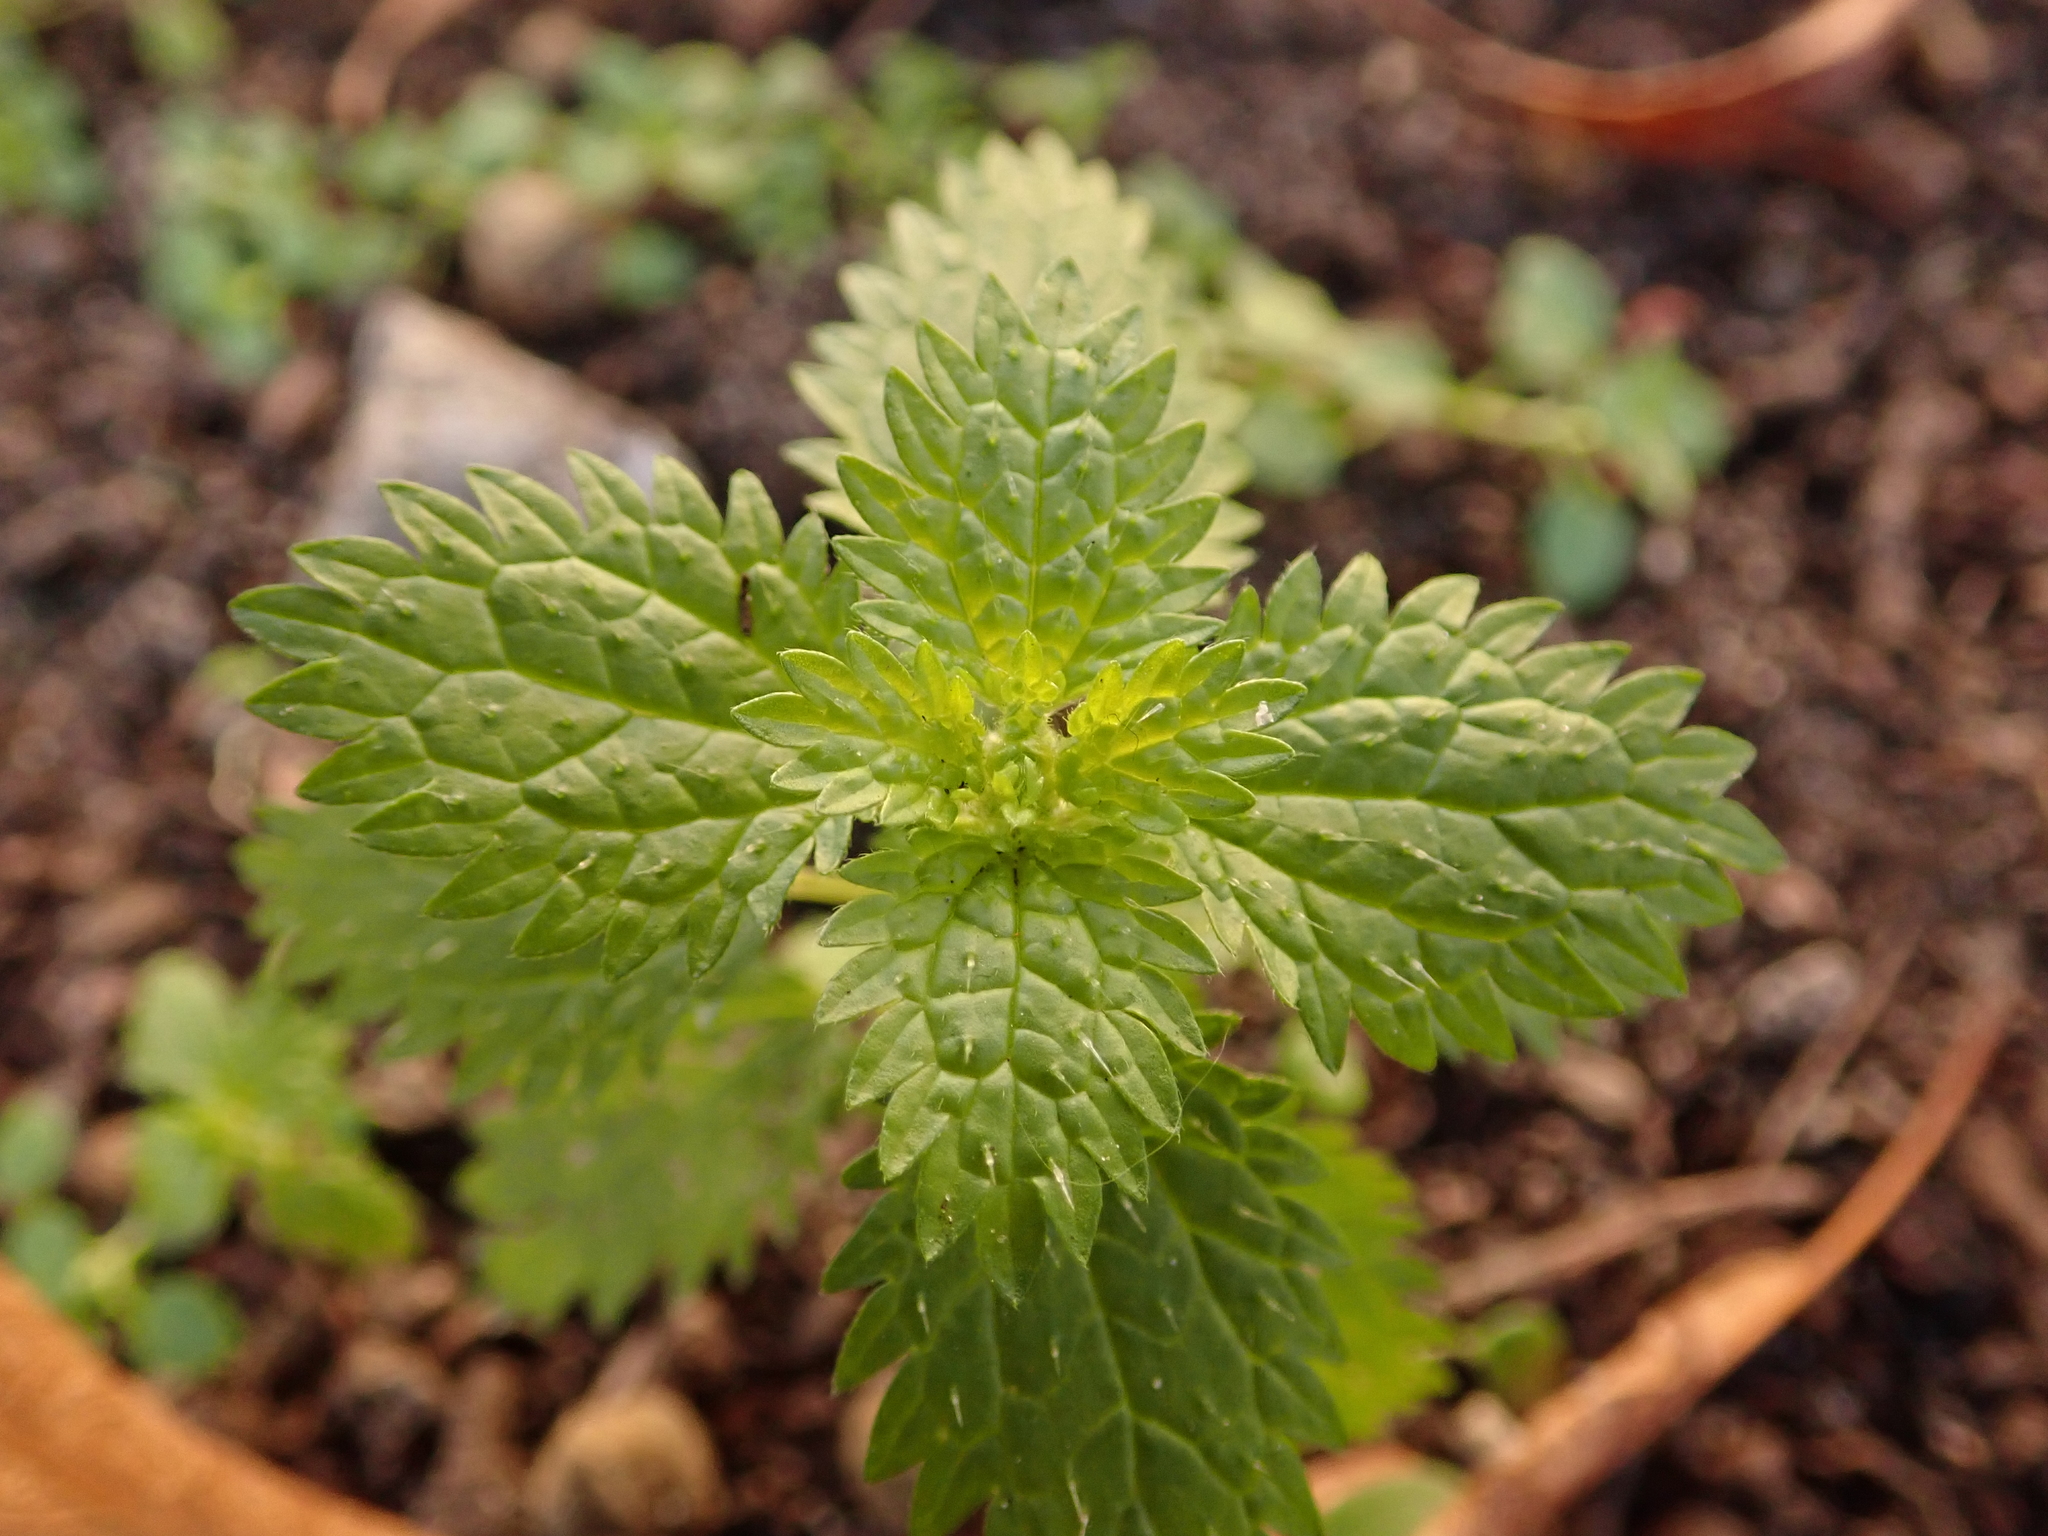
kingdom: Plantae
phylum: Tracheophyta
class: Magnoliopsida
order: Rosales
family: Urticaceae
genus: Urtica
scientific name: Urtica urens
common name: Dwarf nettle
